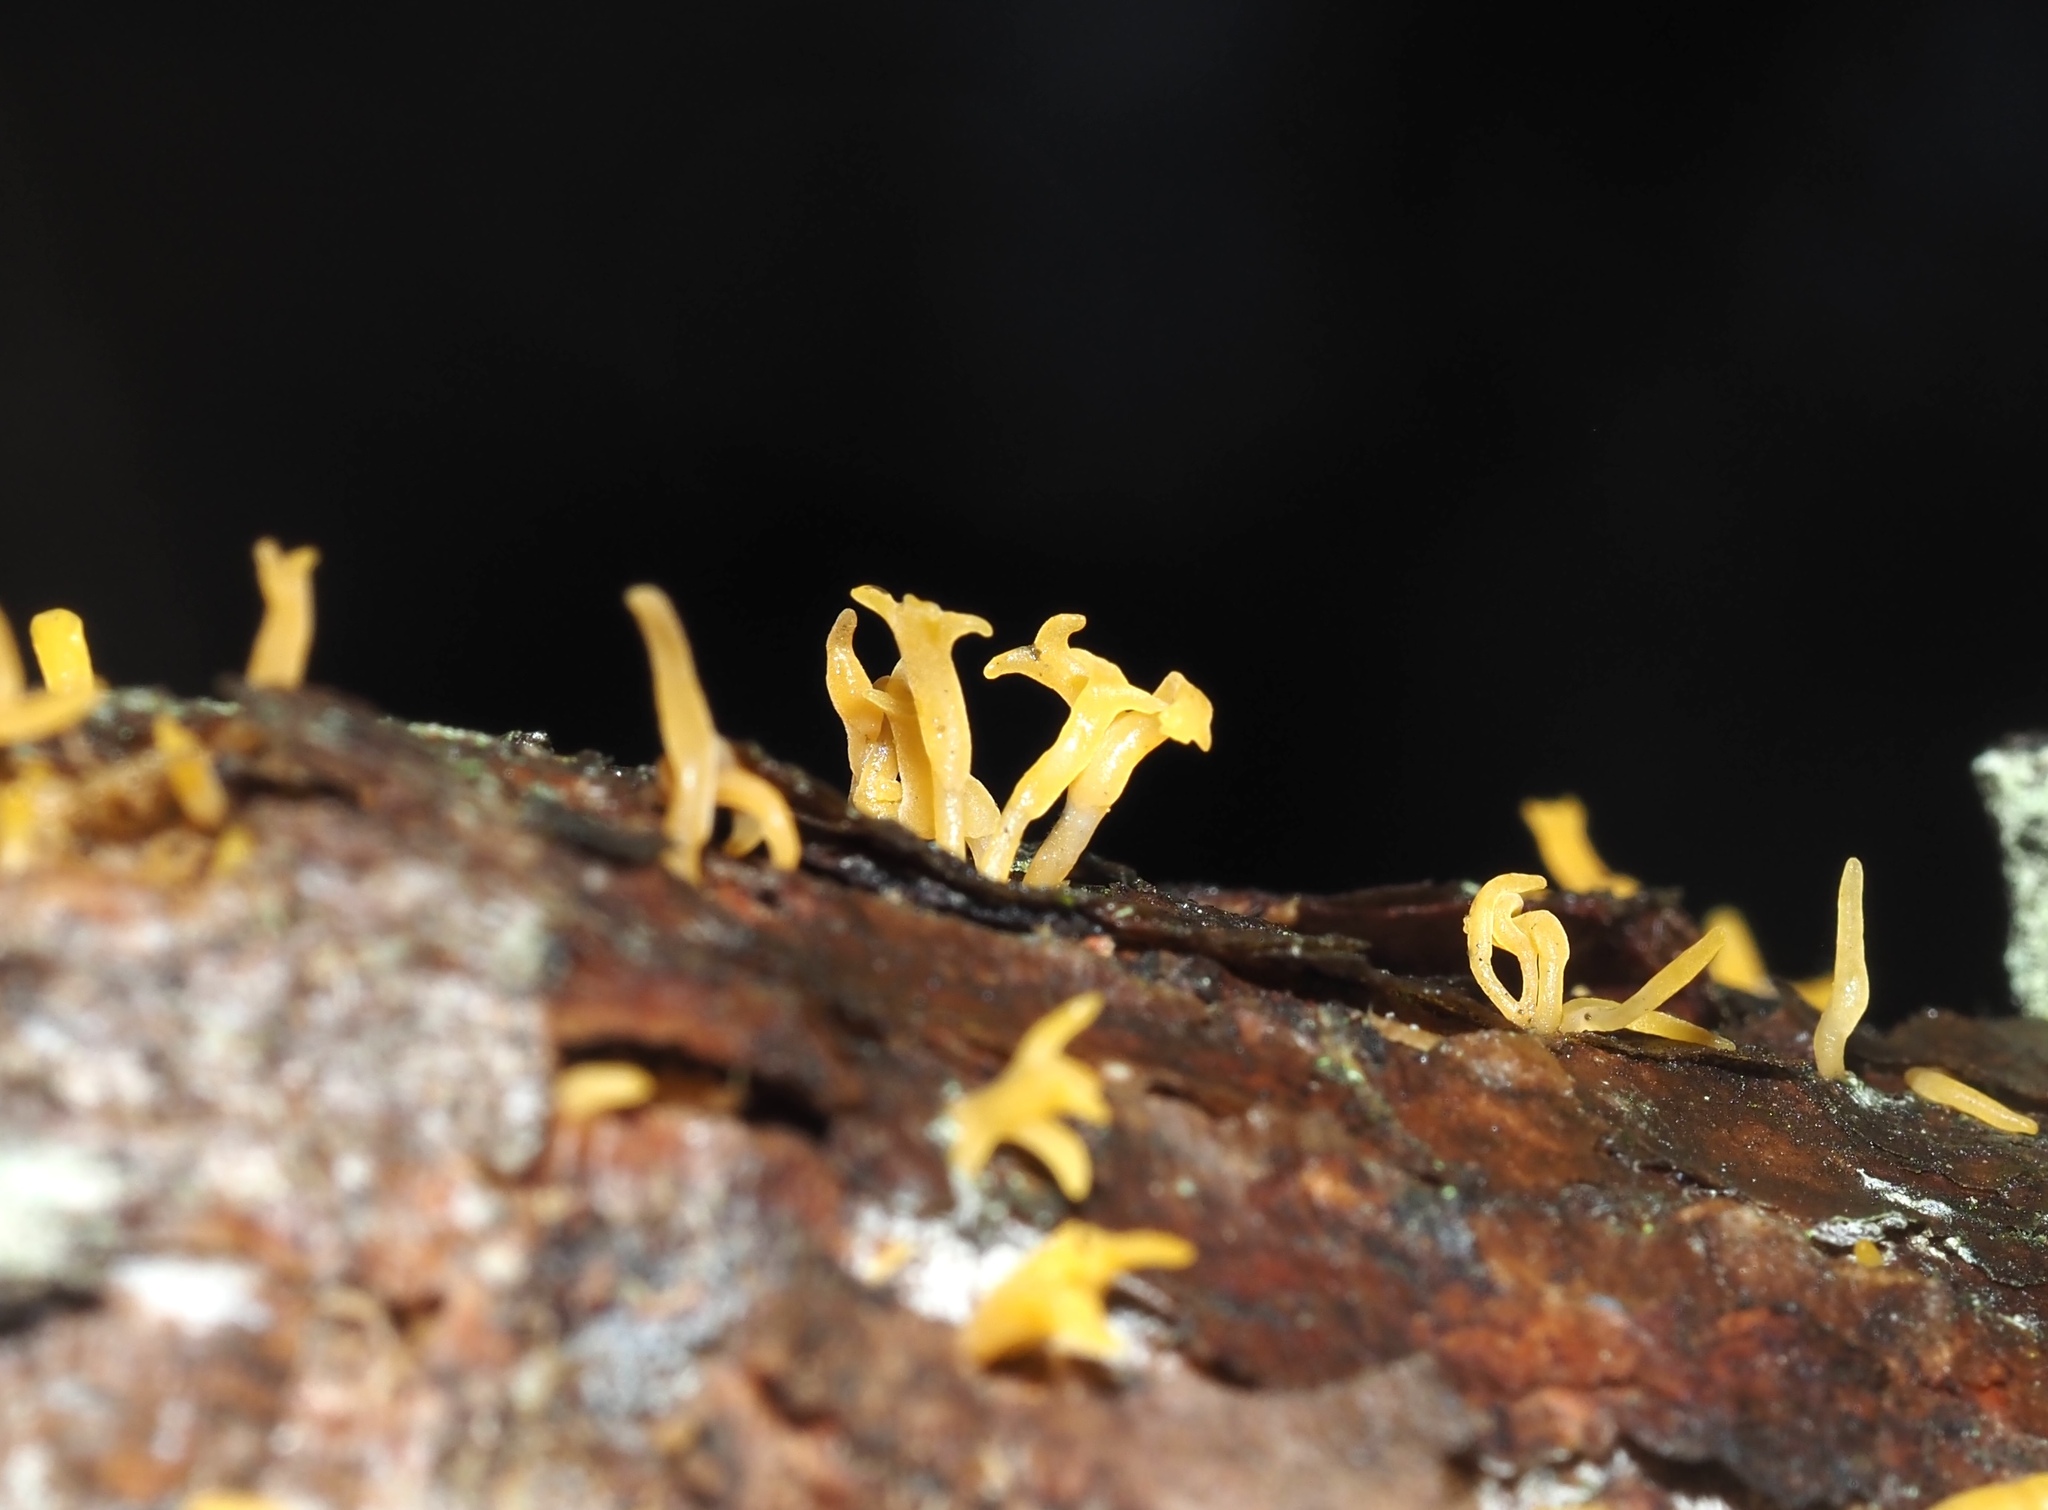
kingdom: Fungi
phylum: Basidiomycota
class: Dacrymycetes
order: Dacrymycetales
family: Dacrymycetaceae
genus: Calocera
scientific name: Calocera cornea
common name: Small stagshorn
